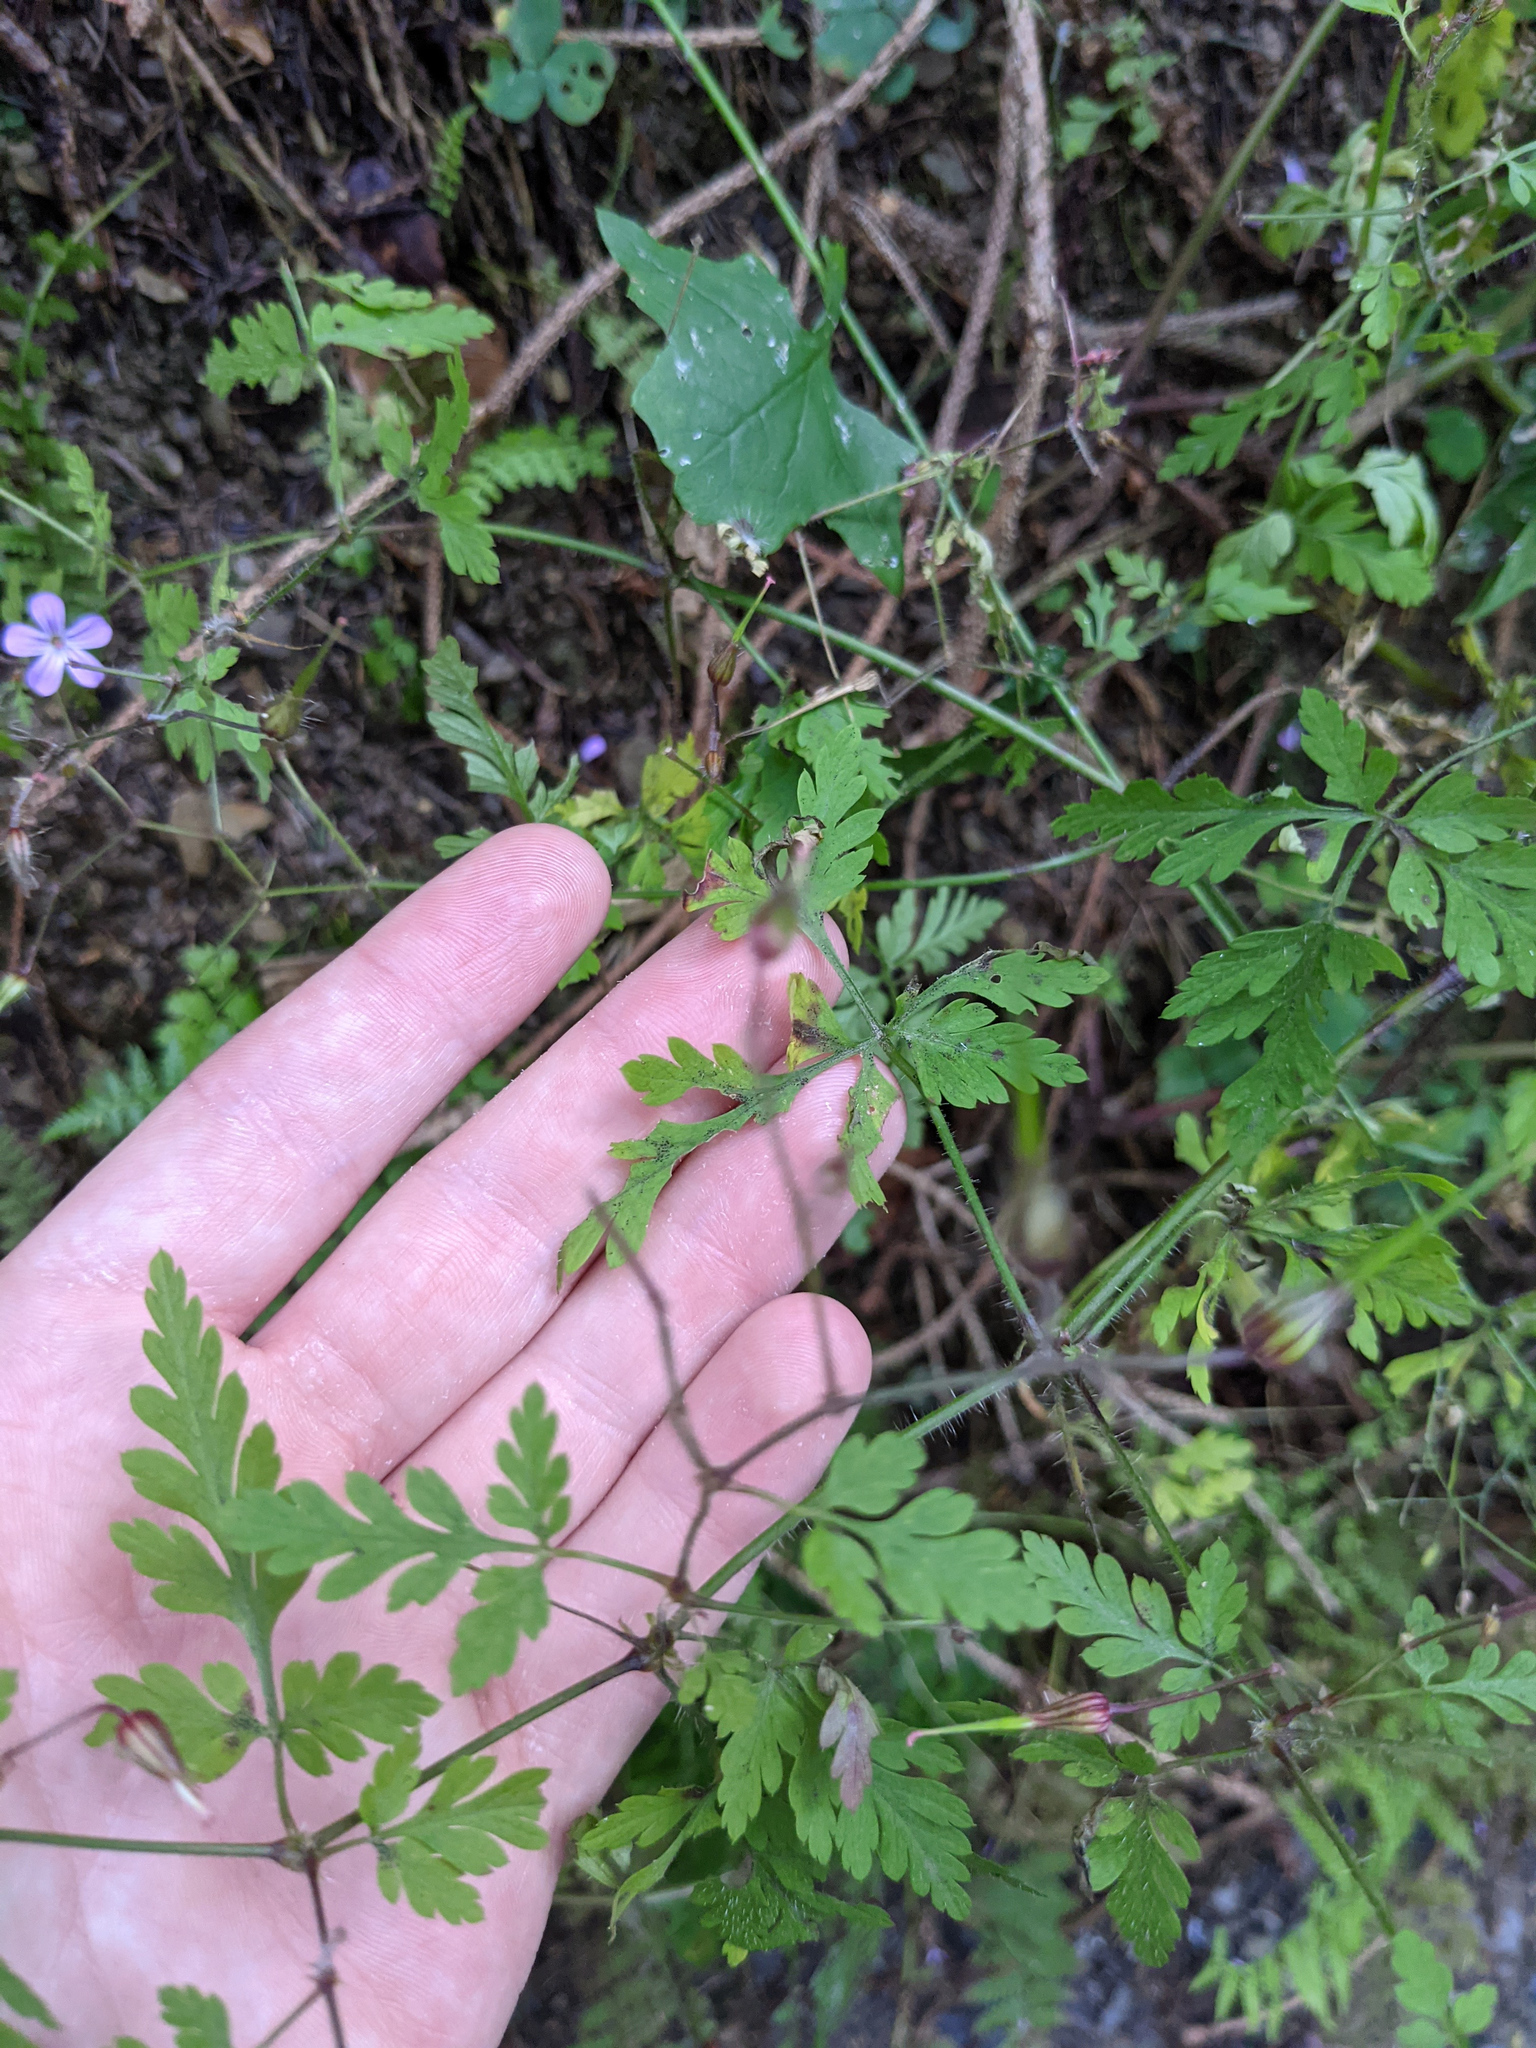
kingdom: Plantae
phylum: Tracheophyta
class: Magnoliopsida
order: Geraniales
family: Geraniaceae
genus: Geranium
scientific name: Geranium robertianum
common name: Herb-robert
